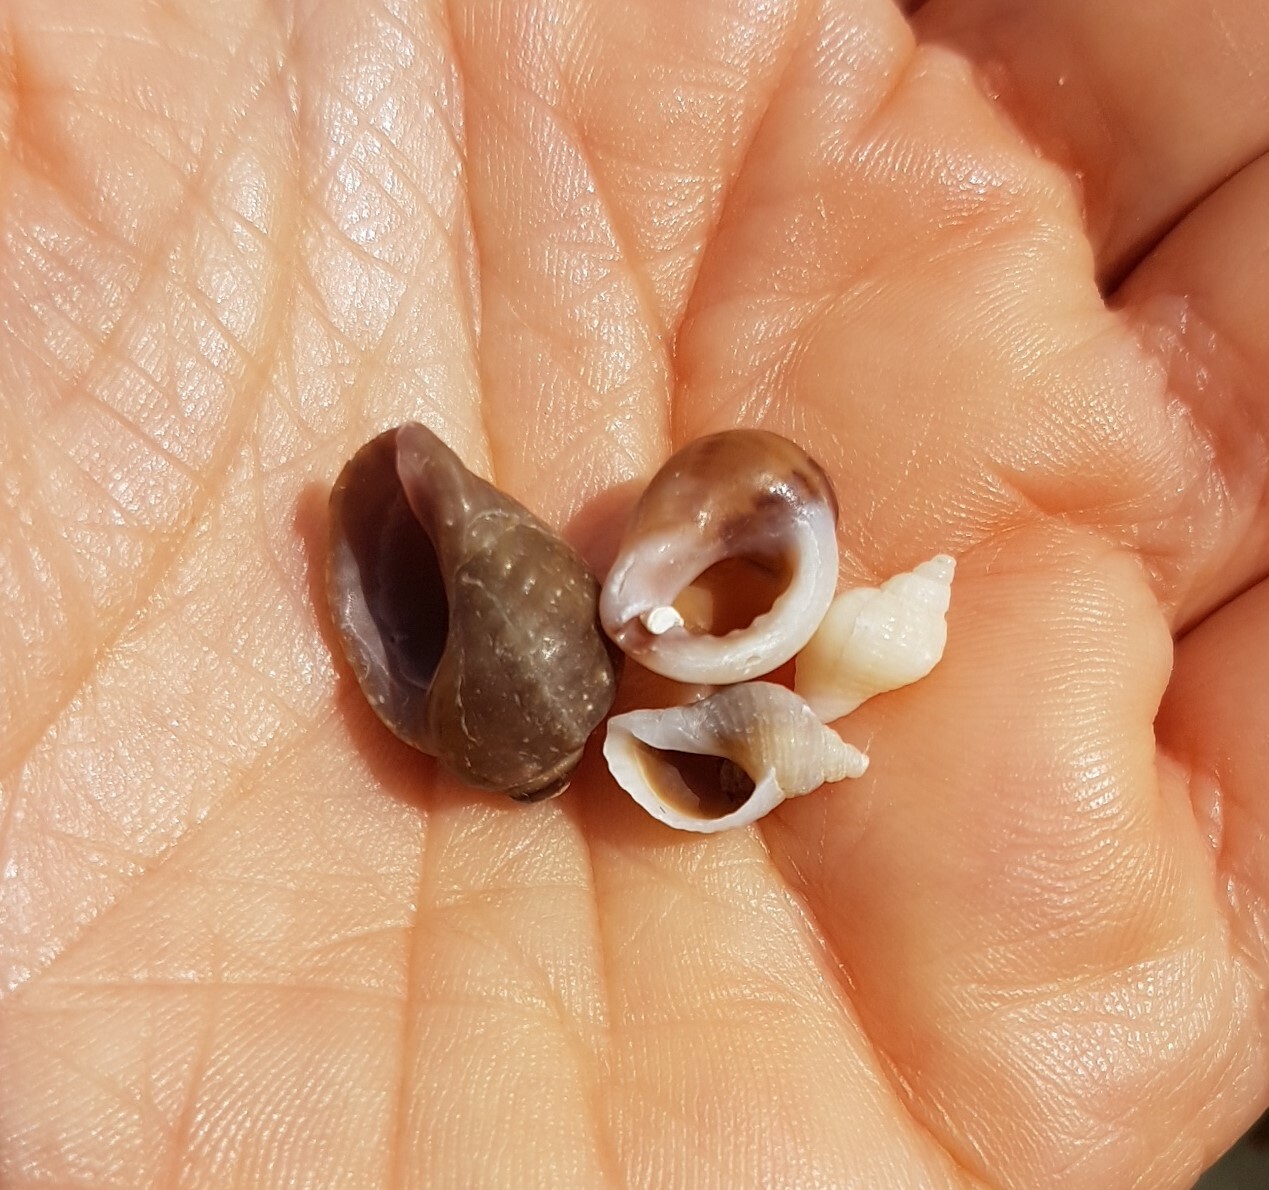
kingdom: Animalia
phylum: Mollusca
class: Gastropoda
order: Neogastropoda
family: Muricidae
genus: Nucella
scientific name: Nucella lapillus
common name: Dog whelk
